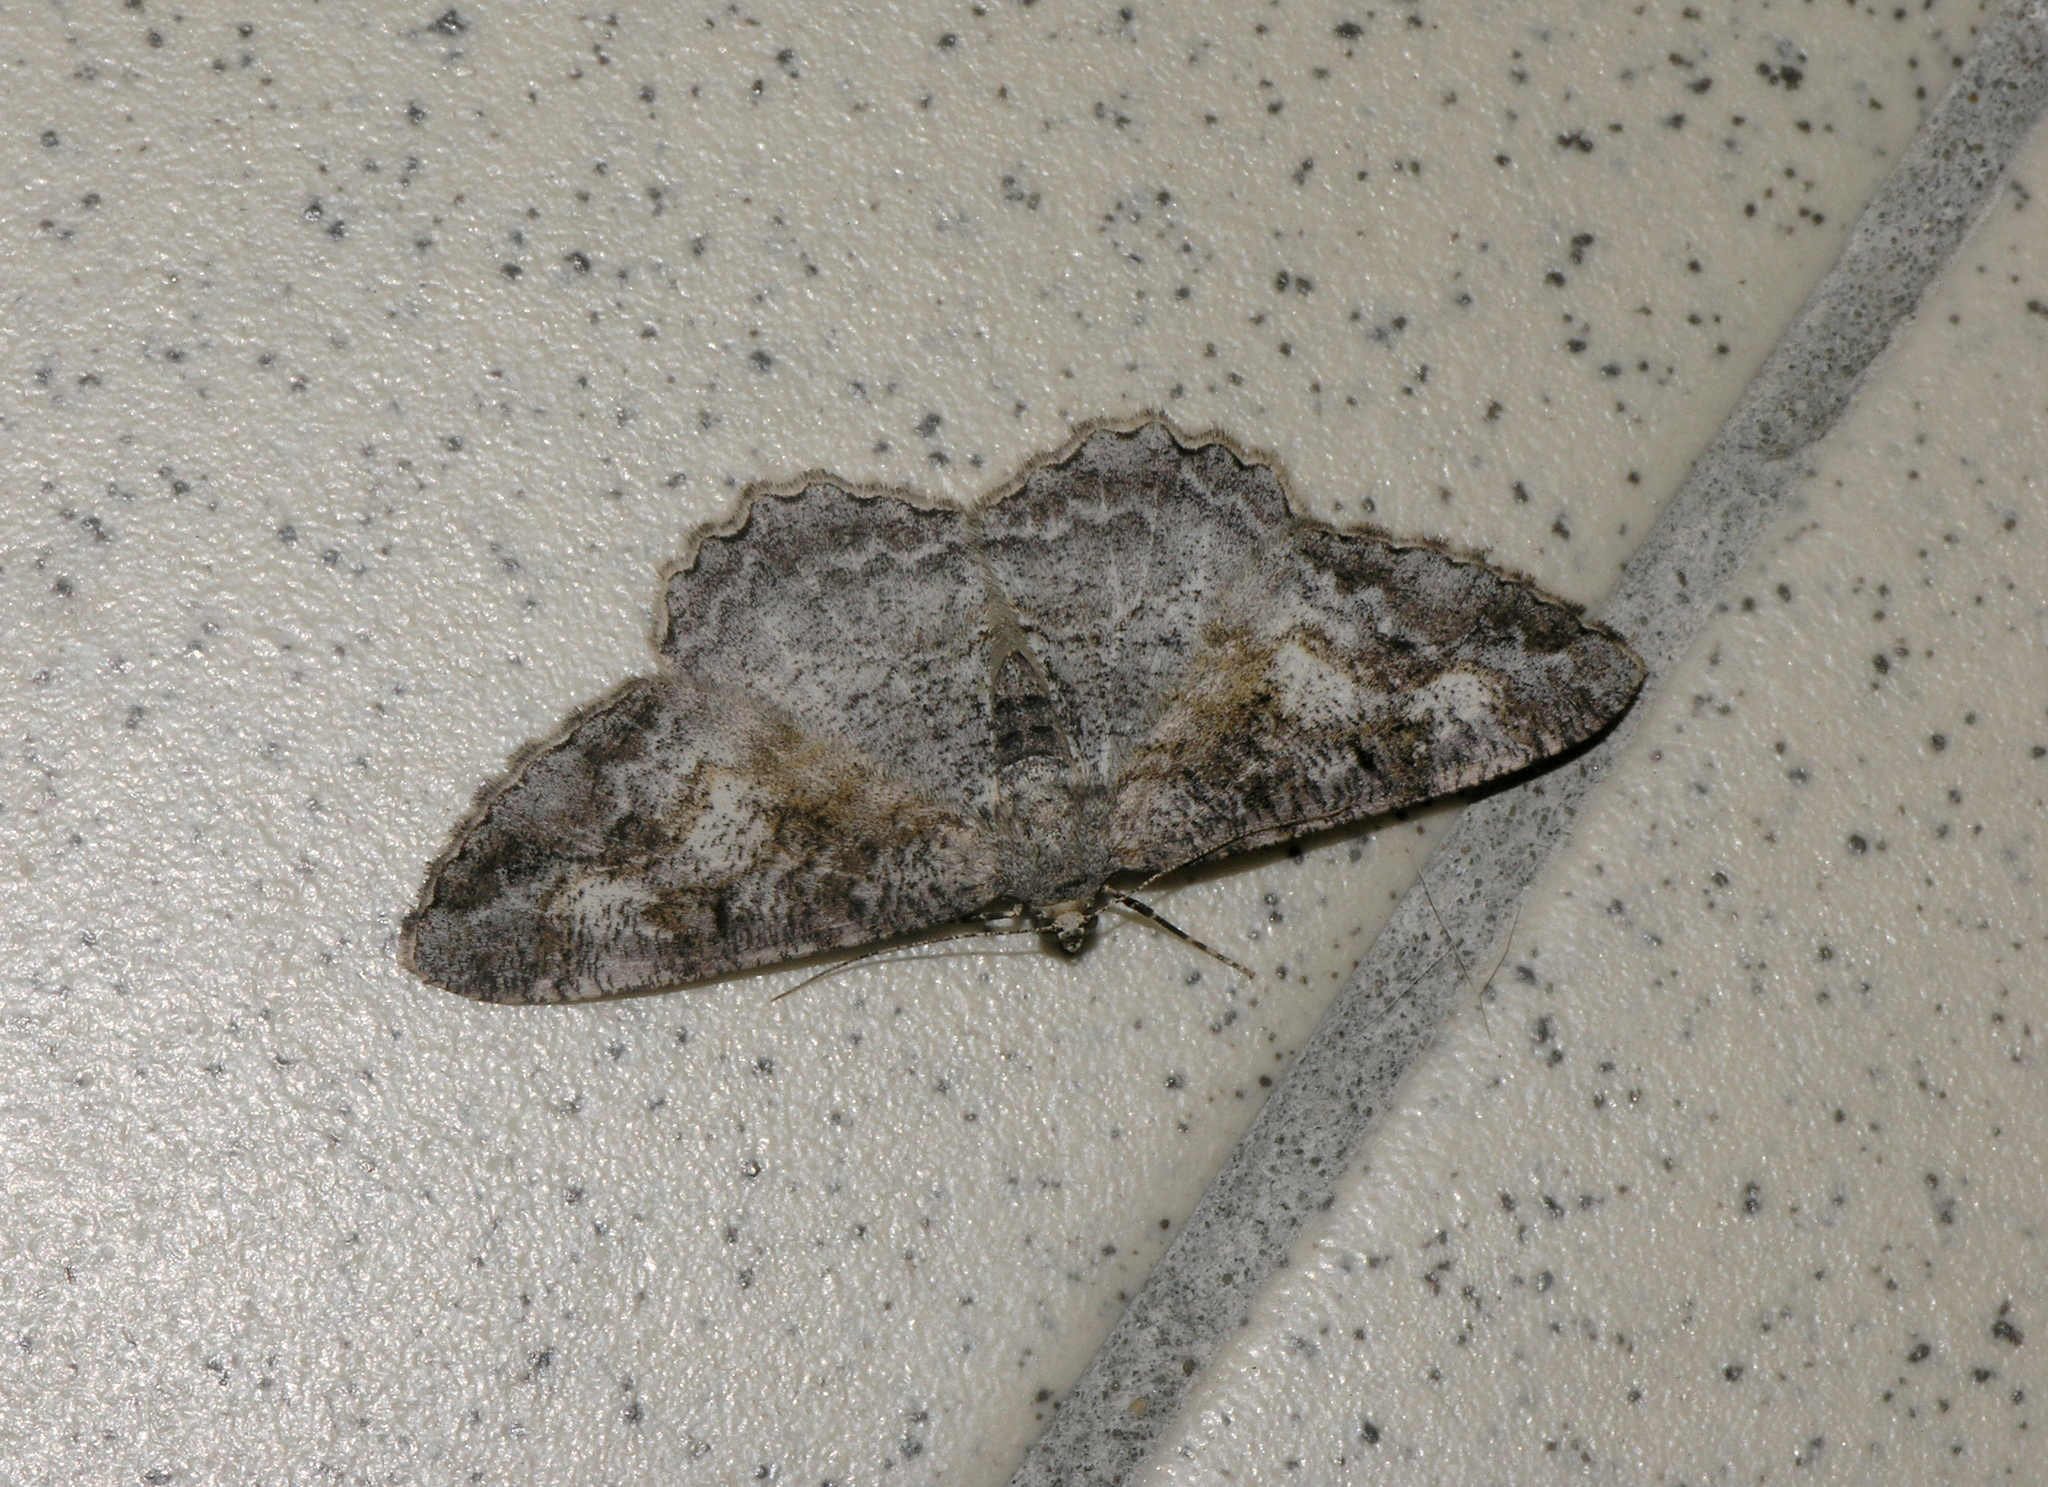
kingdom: Animalia
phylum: Arthropoda
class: Insecta
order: Lepidoptera
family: Geometridae
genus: Alcis
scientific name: Alcis repandata
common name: Mottled beauty
